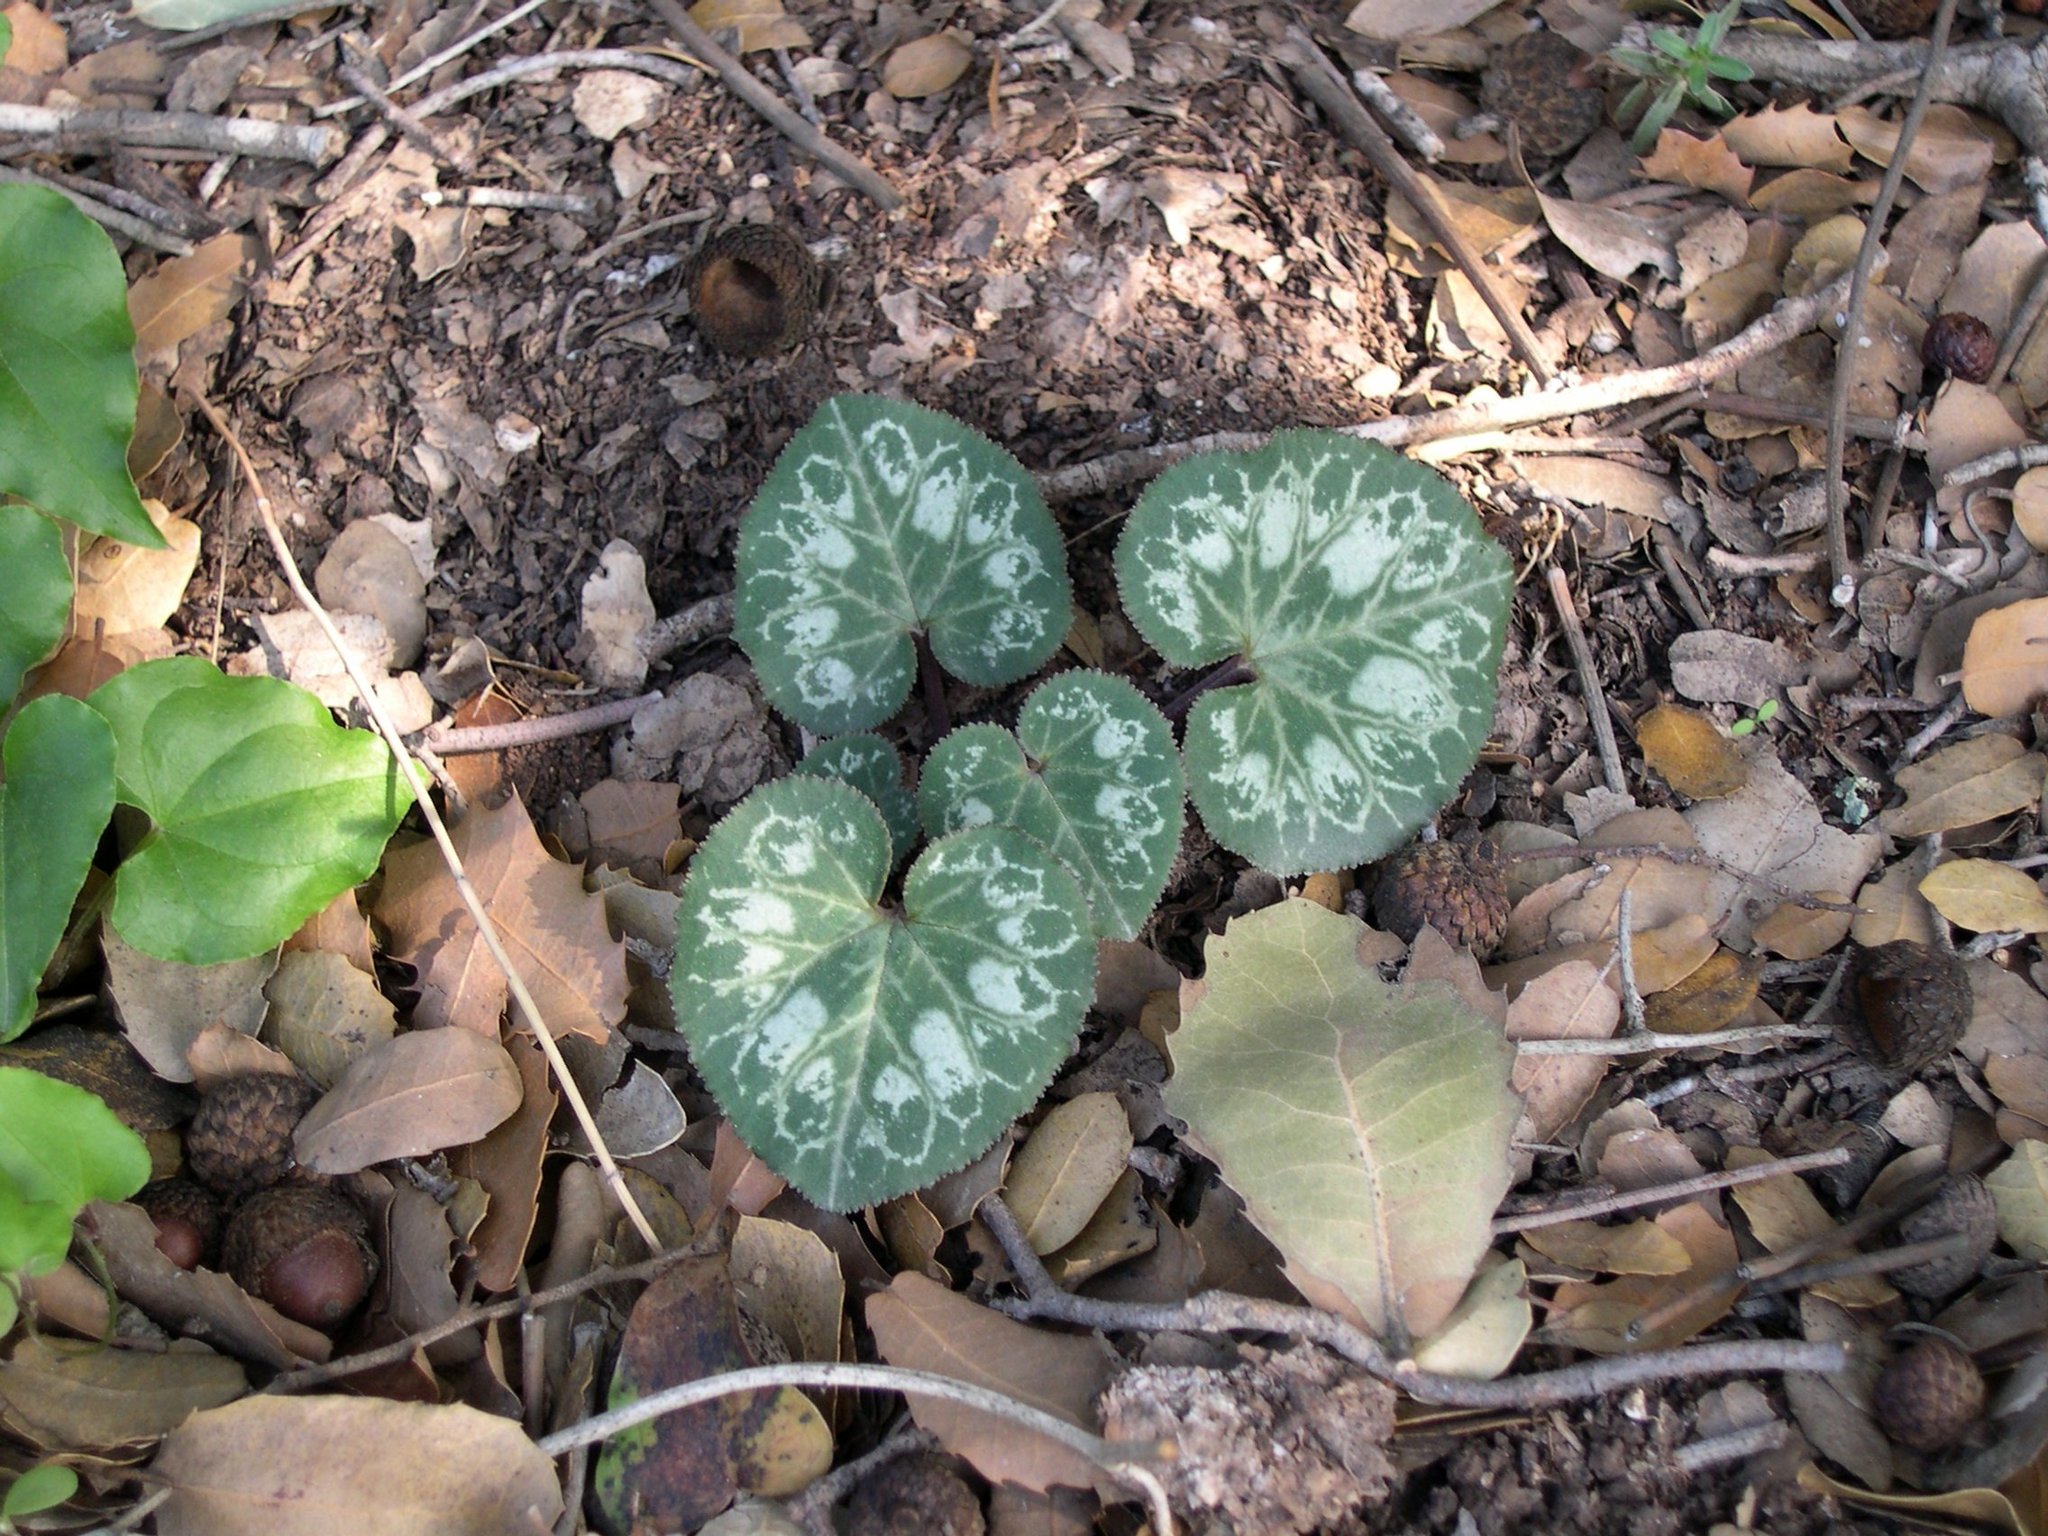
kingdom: Plantae
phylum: Tracheophyta
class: Magnoliopsida
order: Ericales
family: Primulaceae
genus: Cyclamen
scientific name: Cyclamen persicum
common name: Florist's cyclamen
